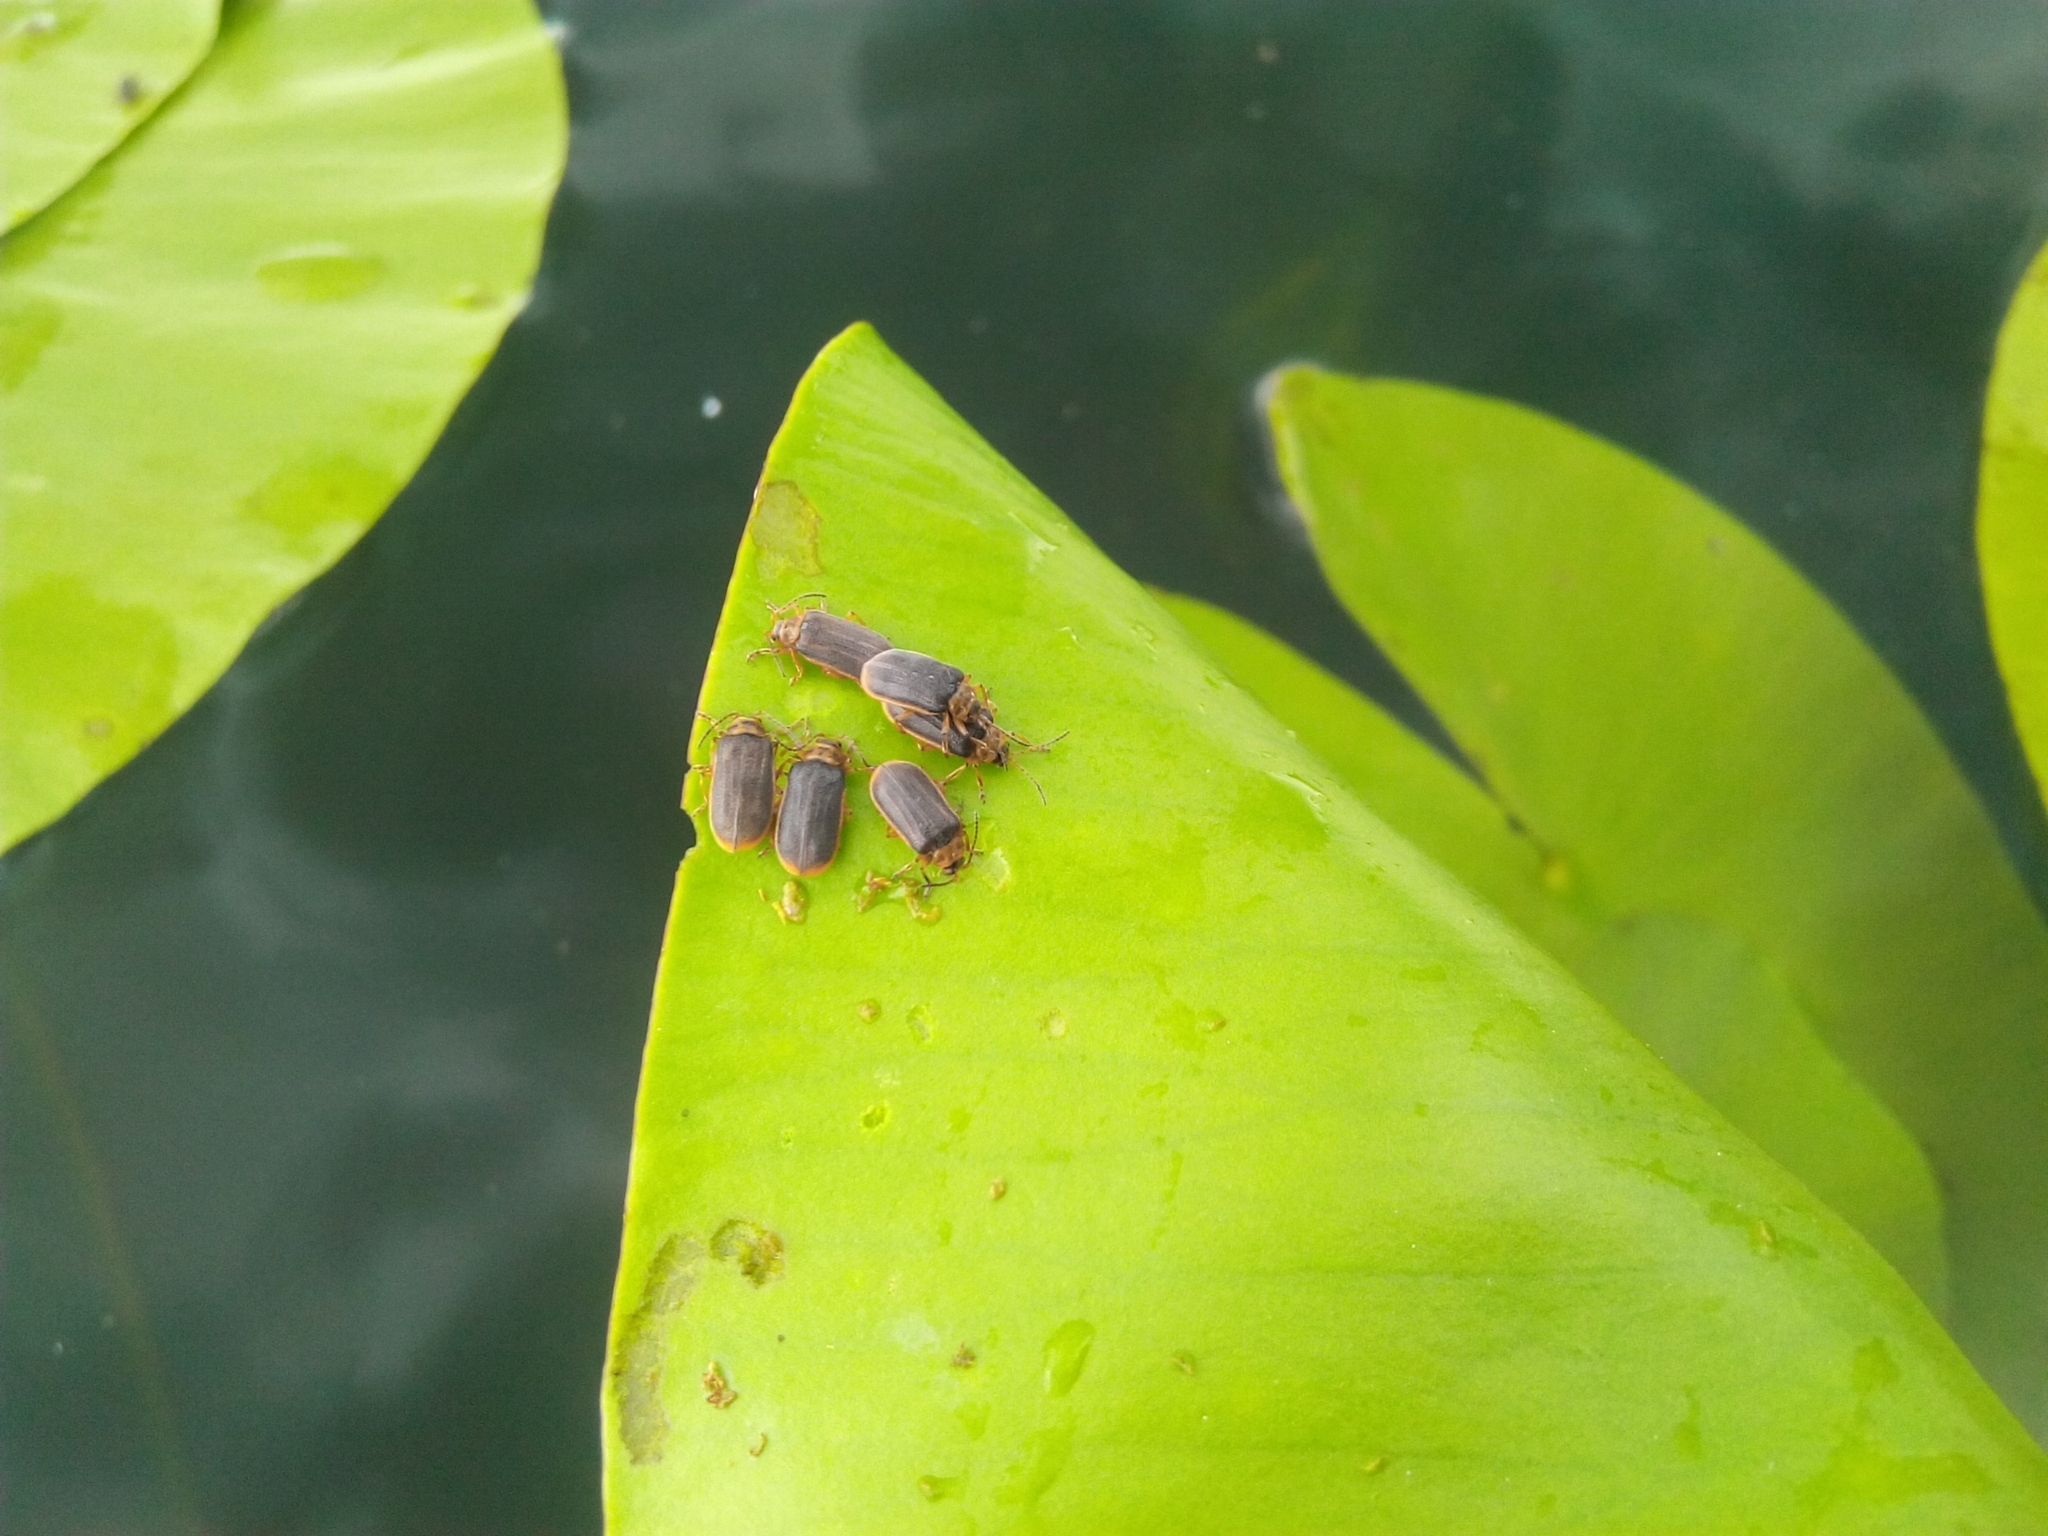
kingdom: Animalia
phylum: Arthropoda
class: Insecta
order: Coleoptera
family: Chrysomelidae
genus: Galerucella
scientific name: Galerucella nymphaeae
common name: Leaf beetle
